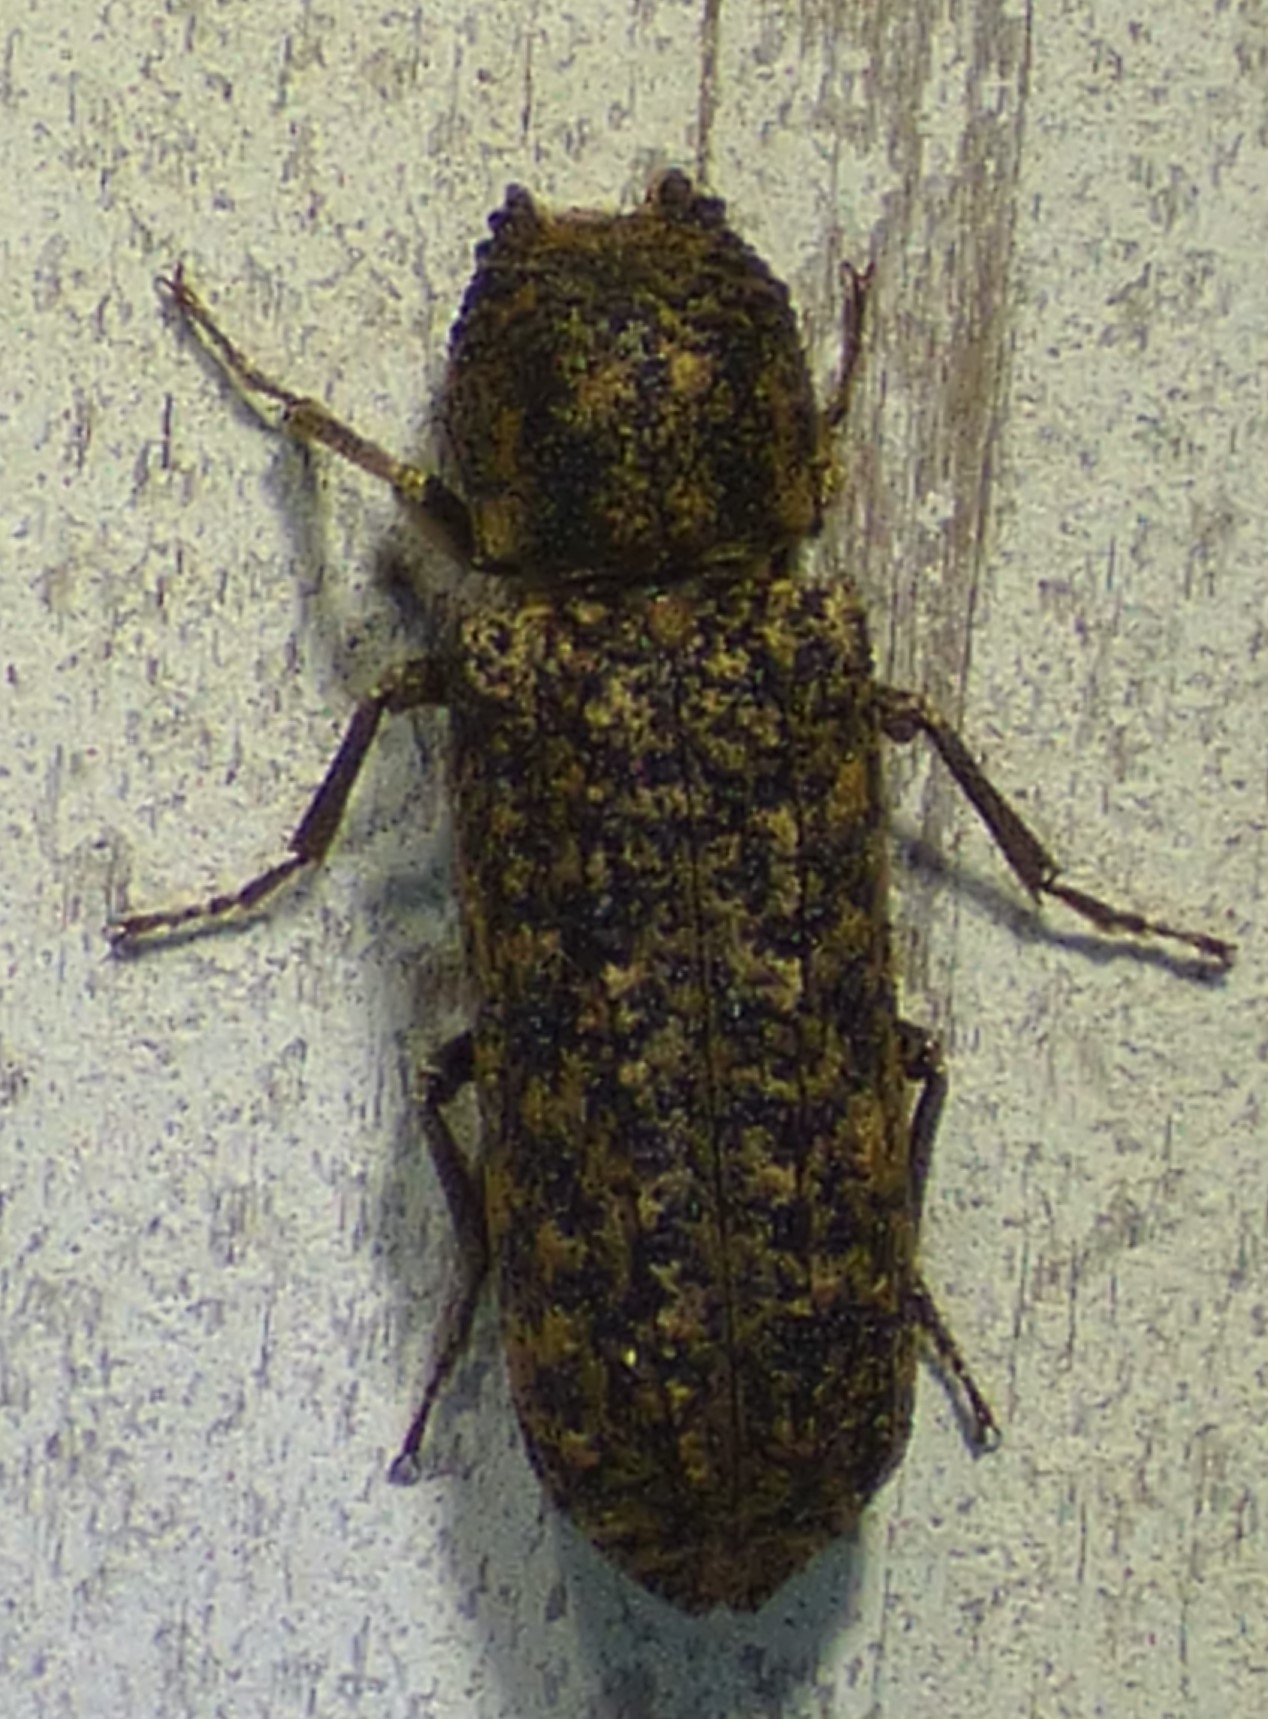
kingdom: Animalia
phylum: Arthropoda
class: Insecta
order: Coleoptera
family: Bostrichidae
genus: Lichenophanes
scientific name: Lichenophanes bicornis
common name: Two-horned powder-post beetle
